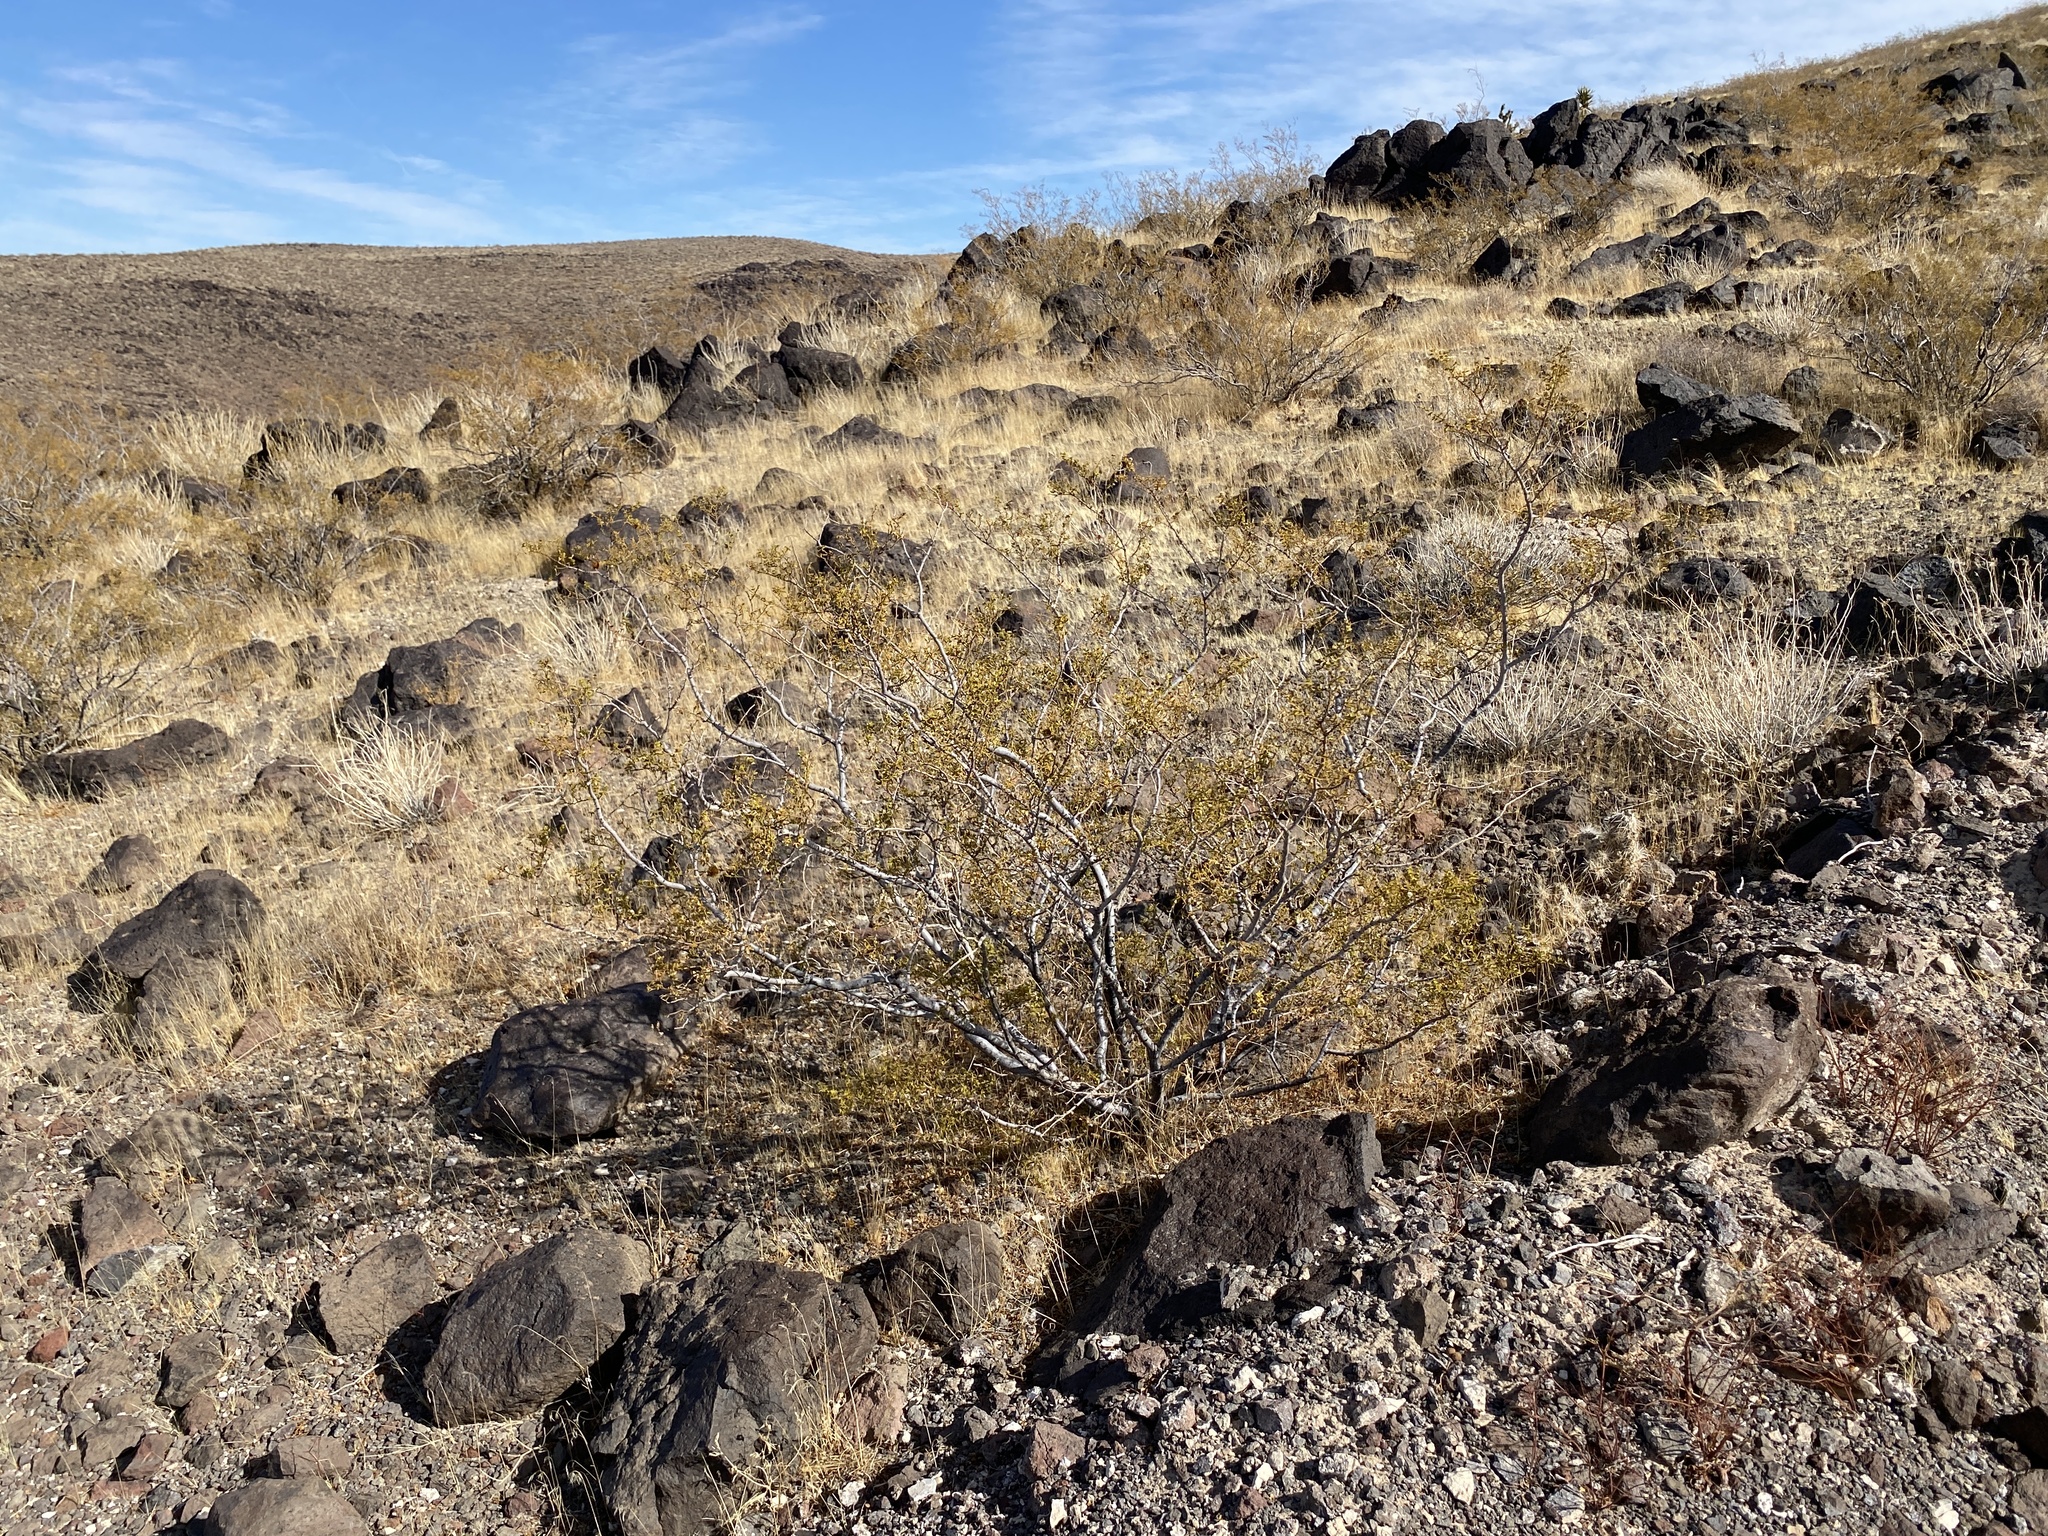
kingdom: Plantae
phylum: Tracheophyta
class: Magnoliopsida
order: Zygophyllales
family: Zygophyllaceae
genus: Larrea
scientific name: Larrea tridentata
